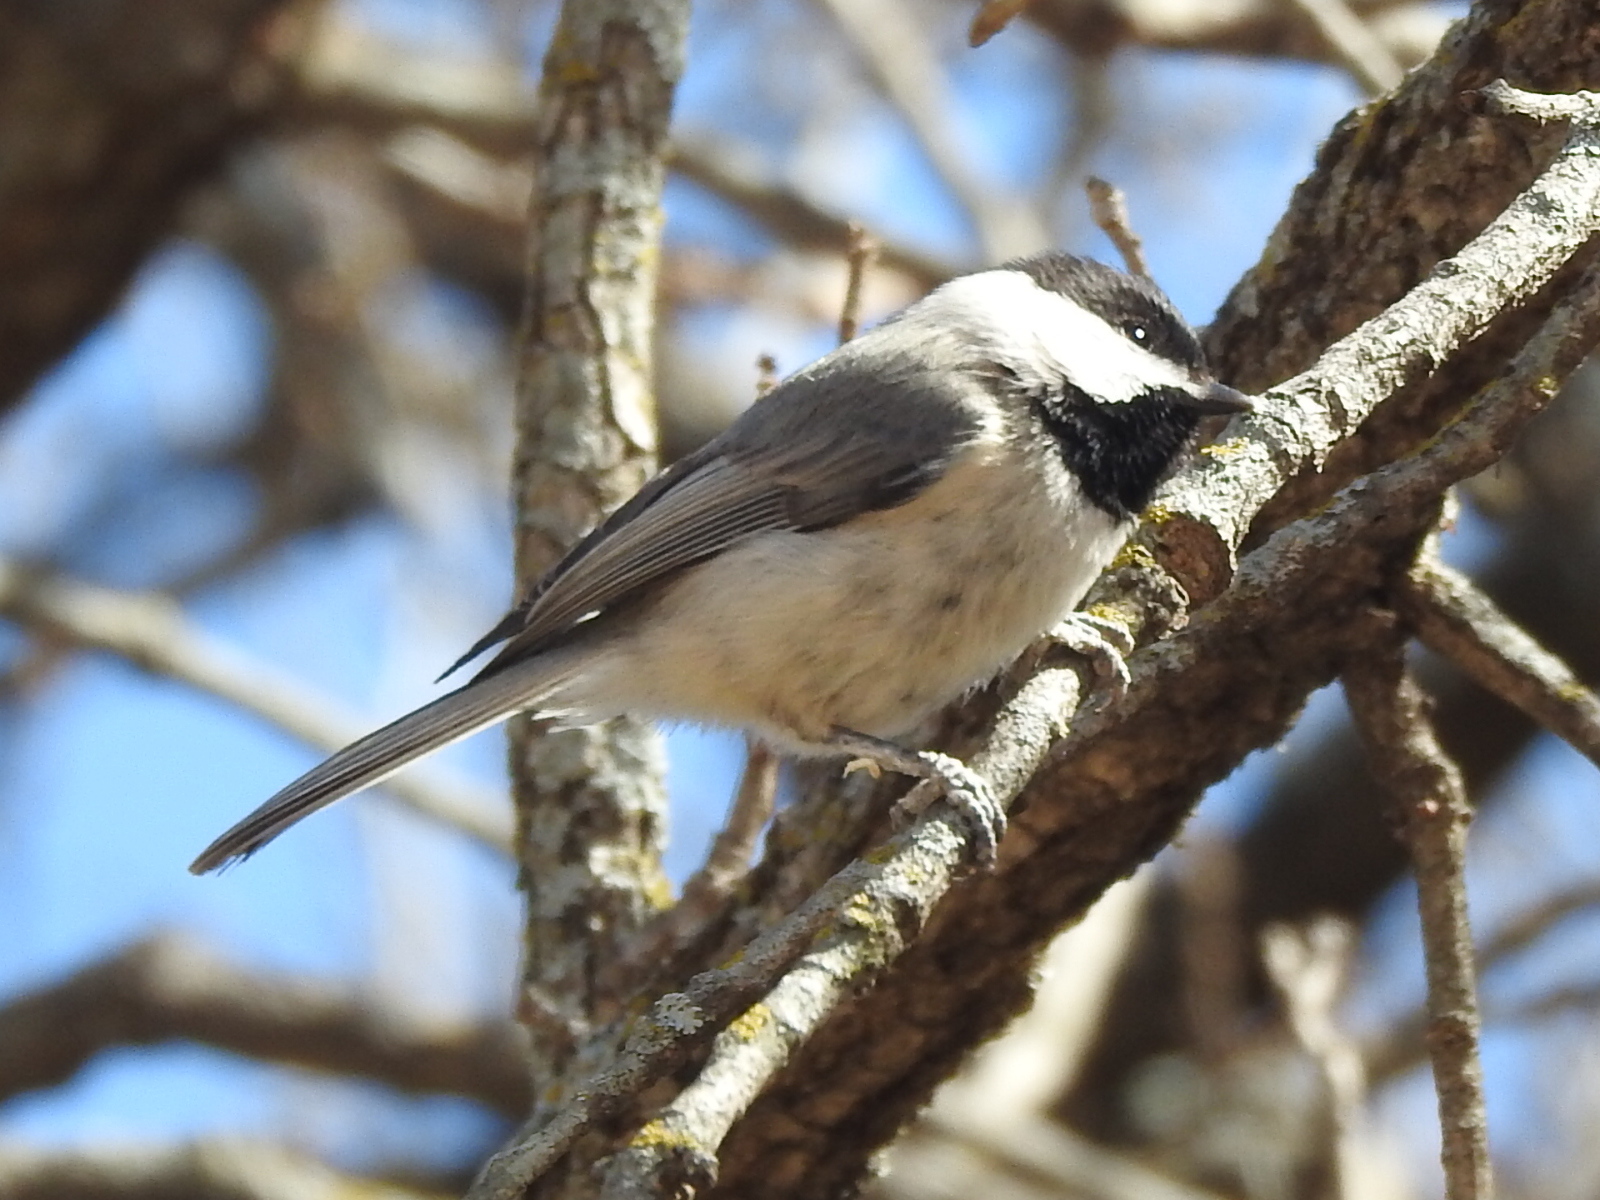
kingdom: Animalia
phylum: Chordata
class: Aves
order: Passeriformes
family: Paridae
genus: Poecile
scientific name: Poecile carolinensis
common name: Carolina chickadee
